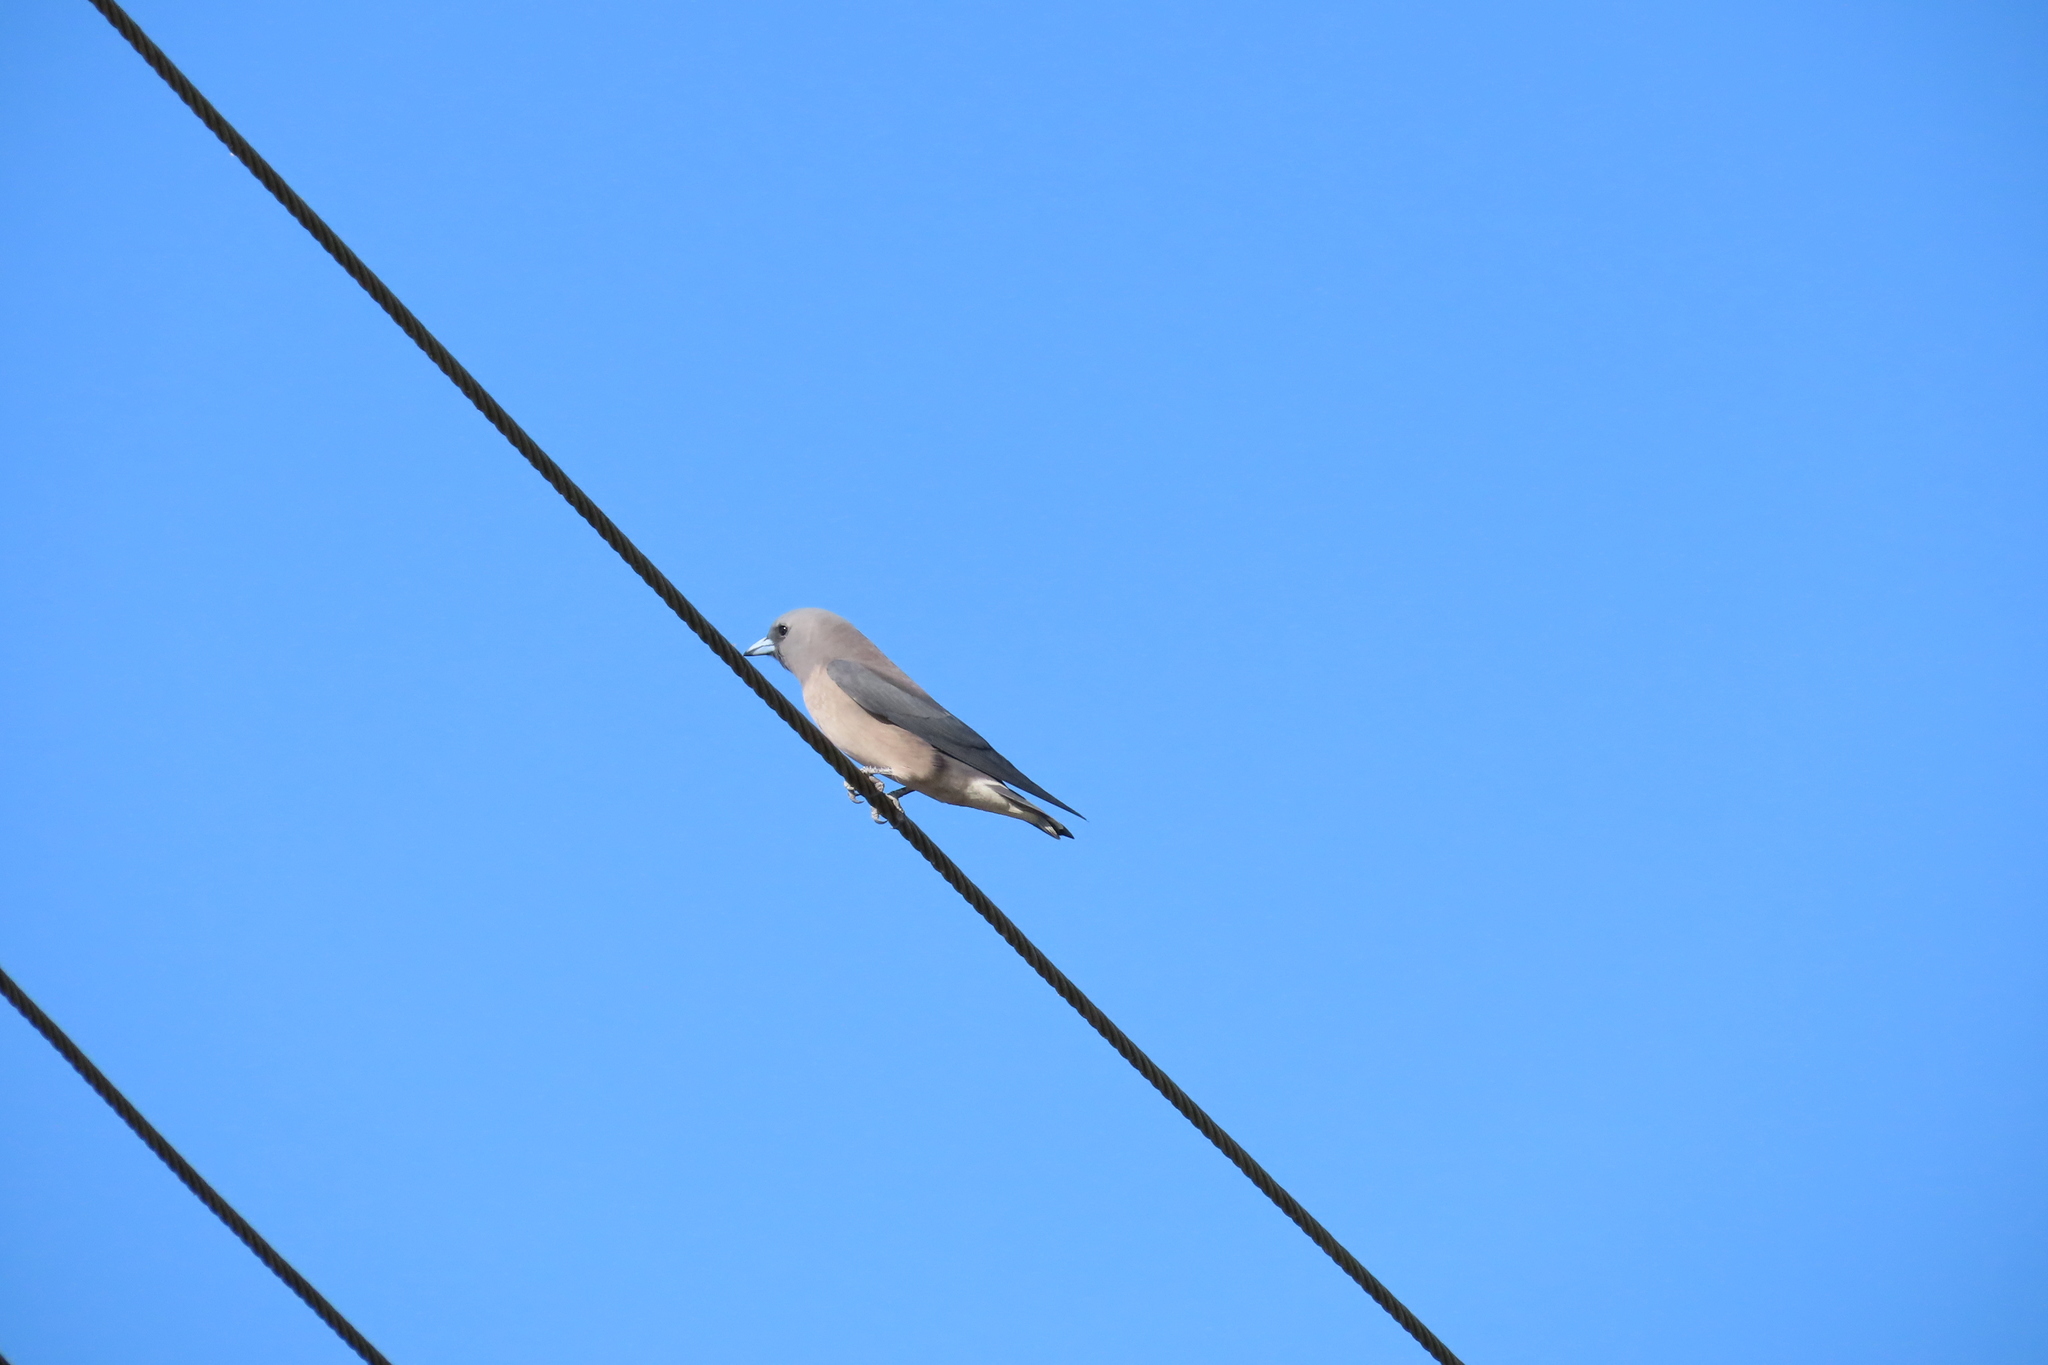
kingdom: Animalia
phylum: Chordata
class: Aves
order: Passeriformes
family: Artamidae
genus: Artamus
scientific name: Artamus fuscus
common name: Ashy woodswallow
